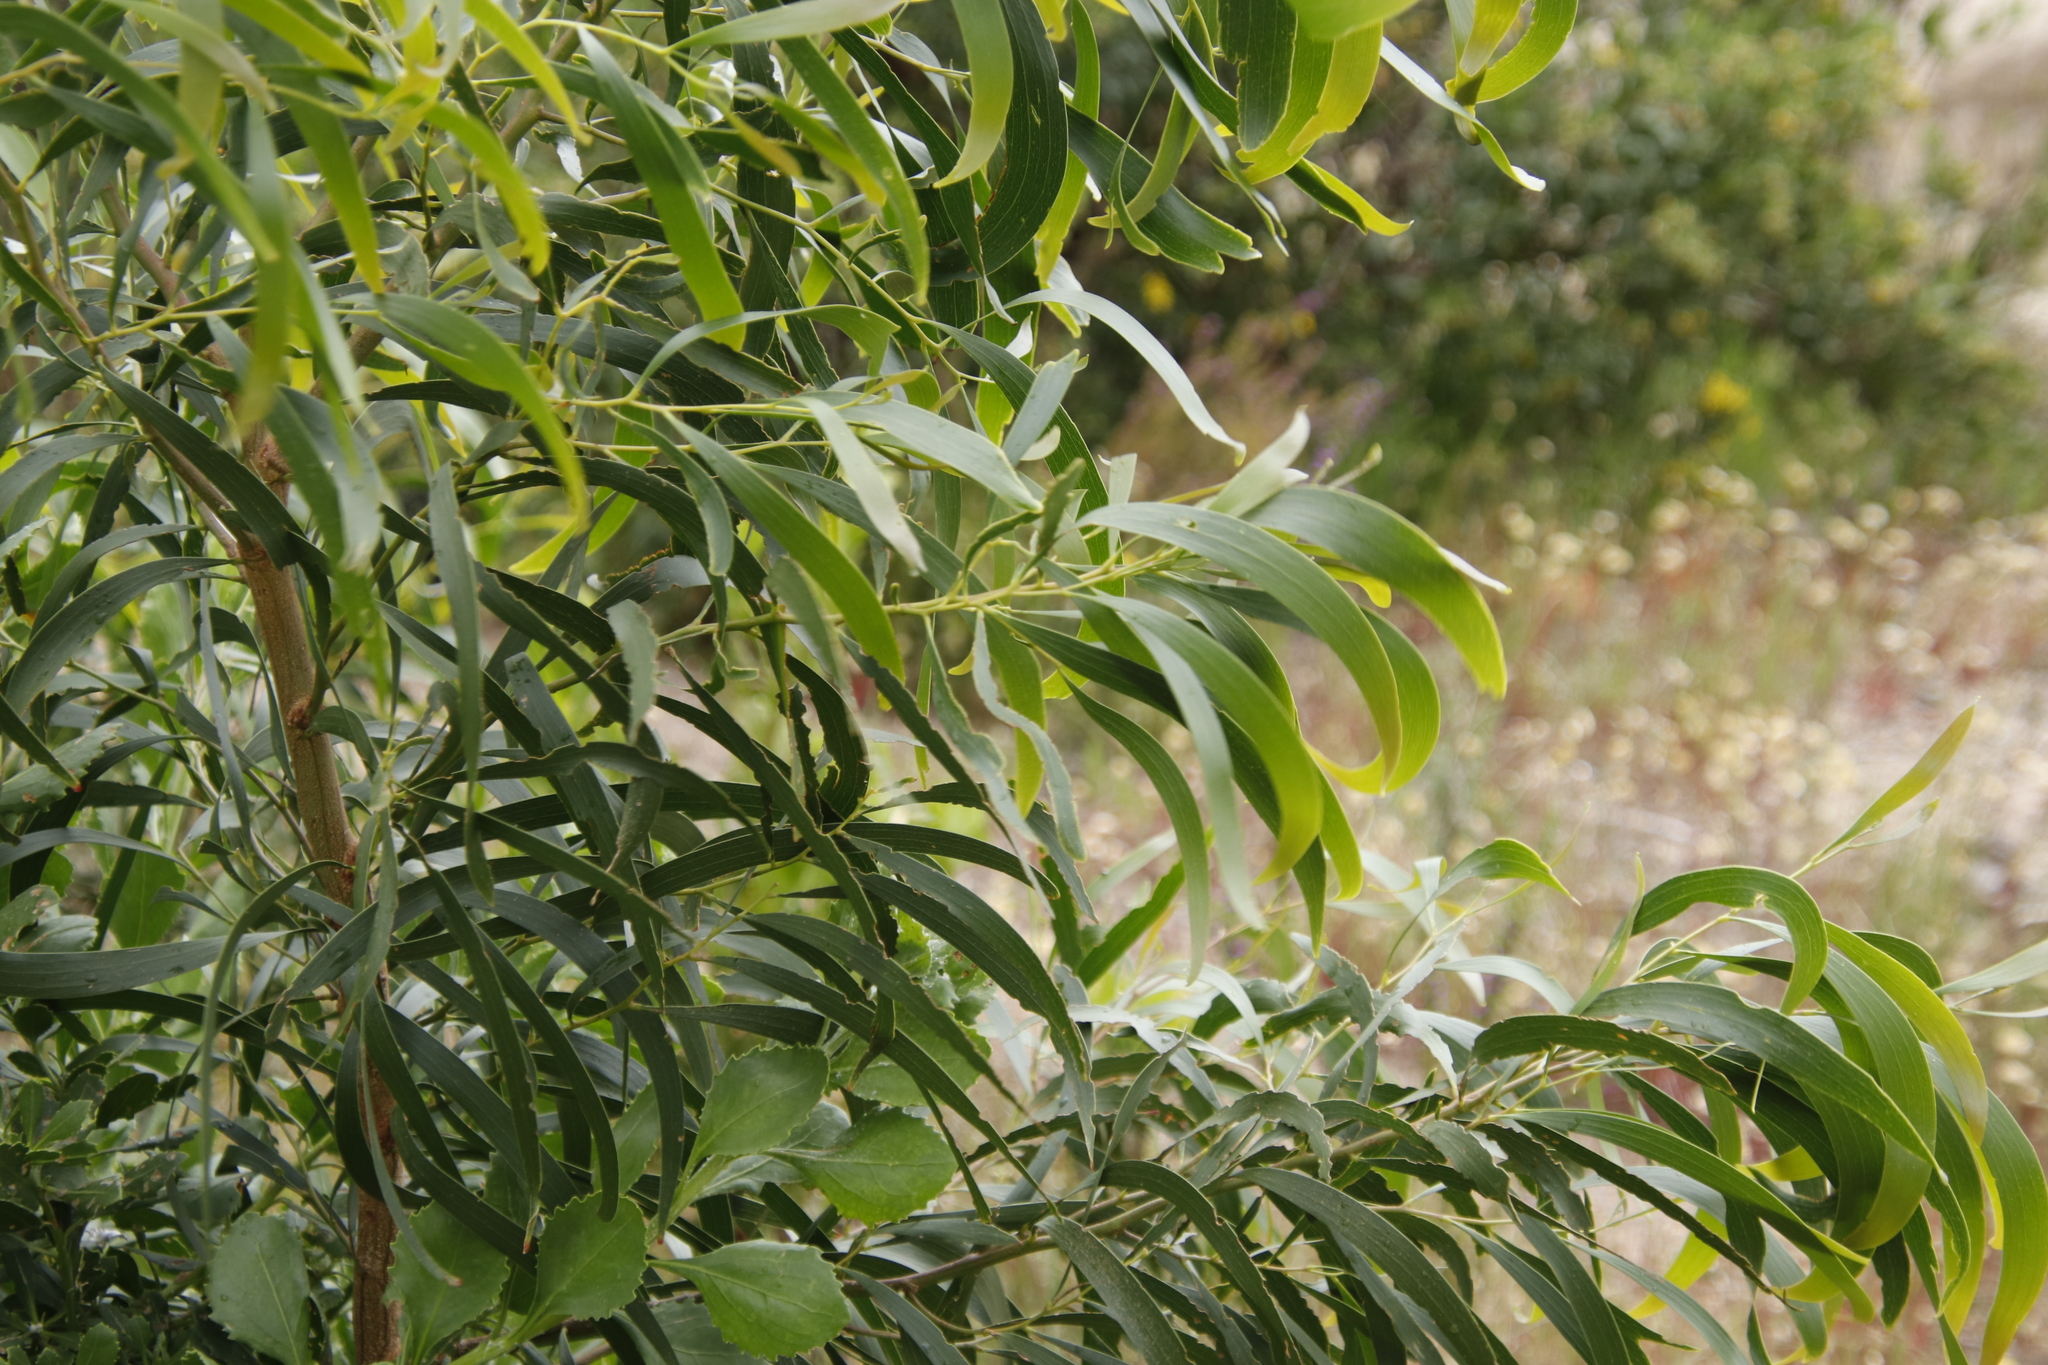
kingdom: Plantae
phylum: Tracheophyta
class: Magnoliopsida
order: Fabales
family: Fabaceae
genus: Acacia
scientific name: Acacia implexa
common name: Black wattle
